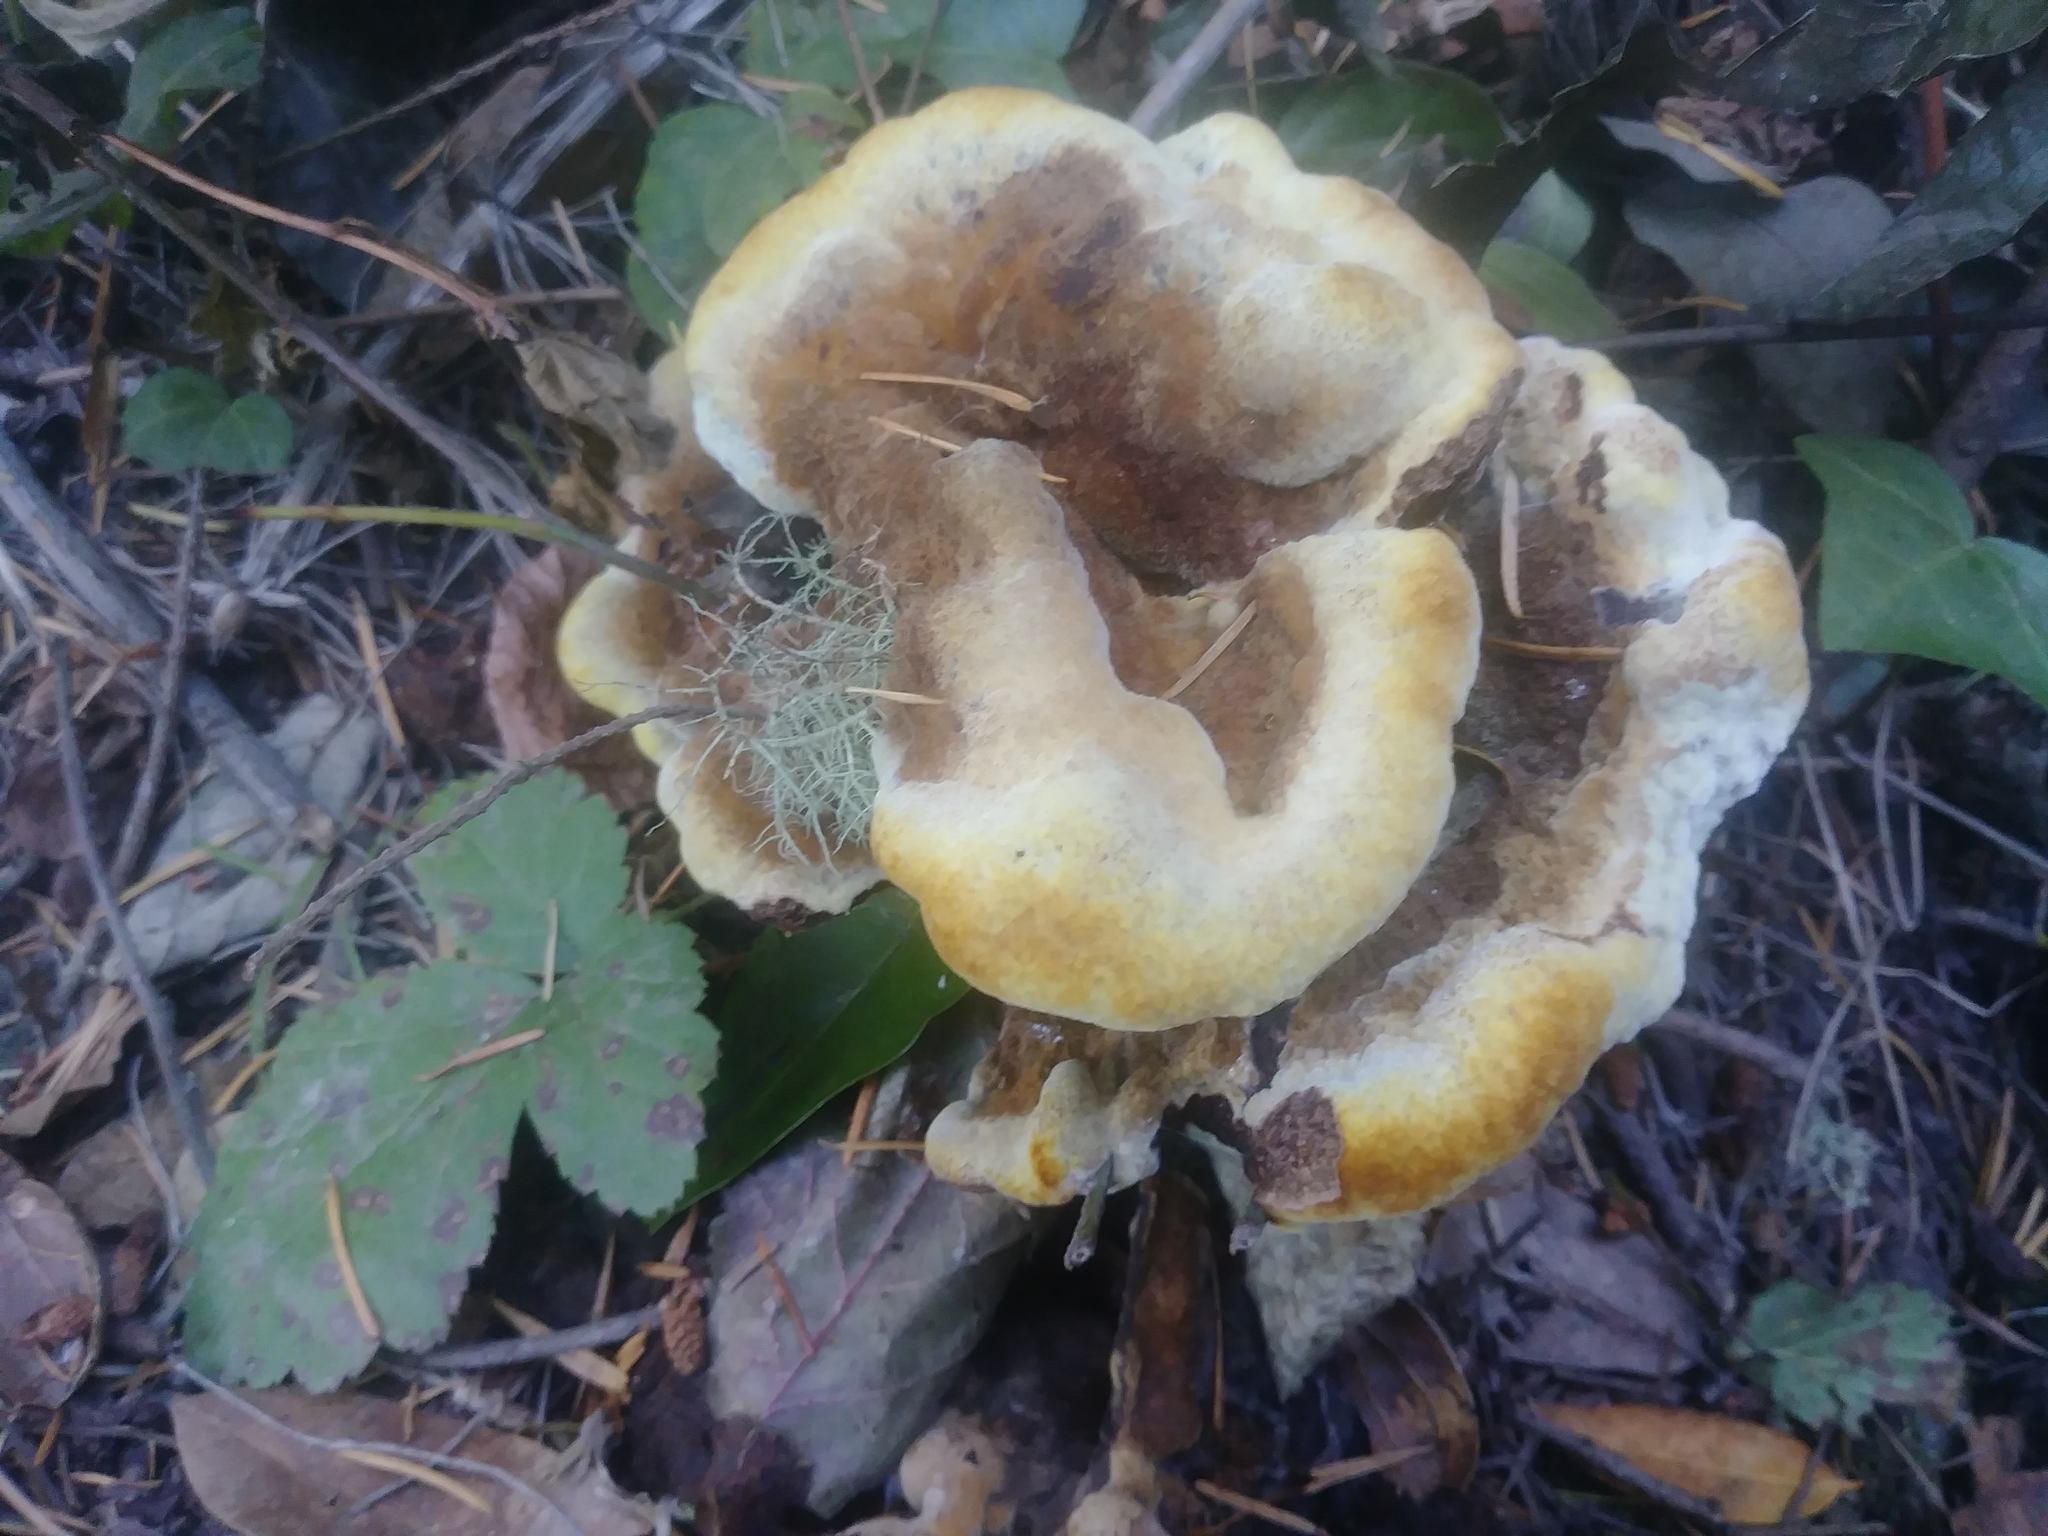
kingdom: Fungi
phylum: Basidiomycota
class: Agaricomycetes
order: Polyporales
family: Laetiporaceae
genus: Phaeolus
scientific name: Phaeolus schweinitzii
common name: Dyer's mazegill
